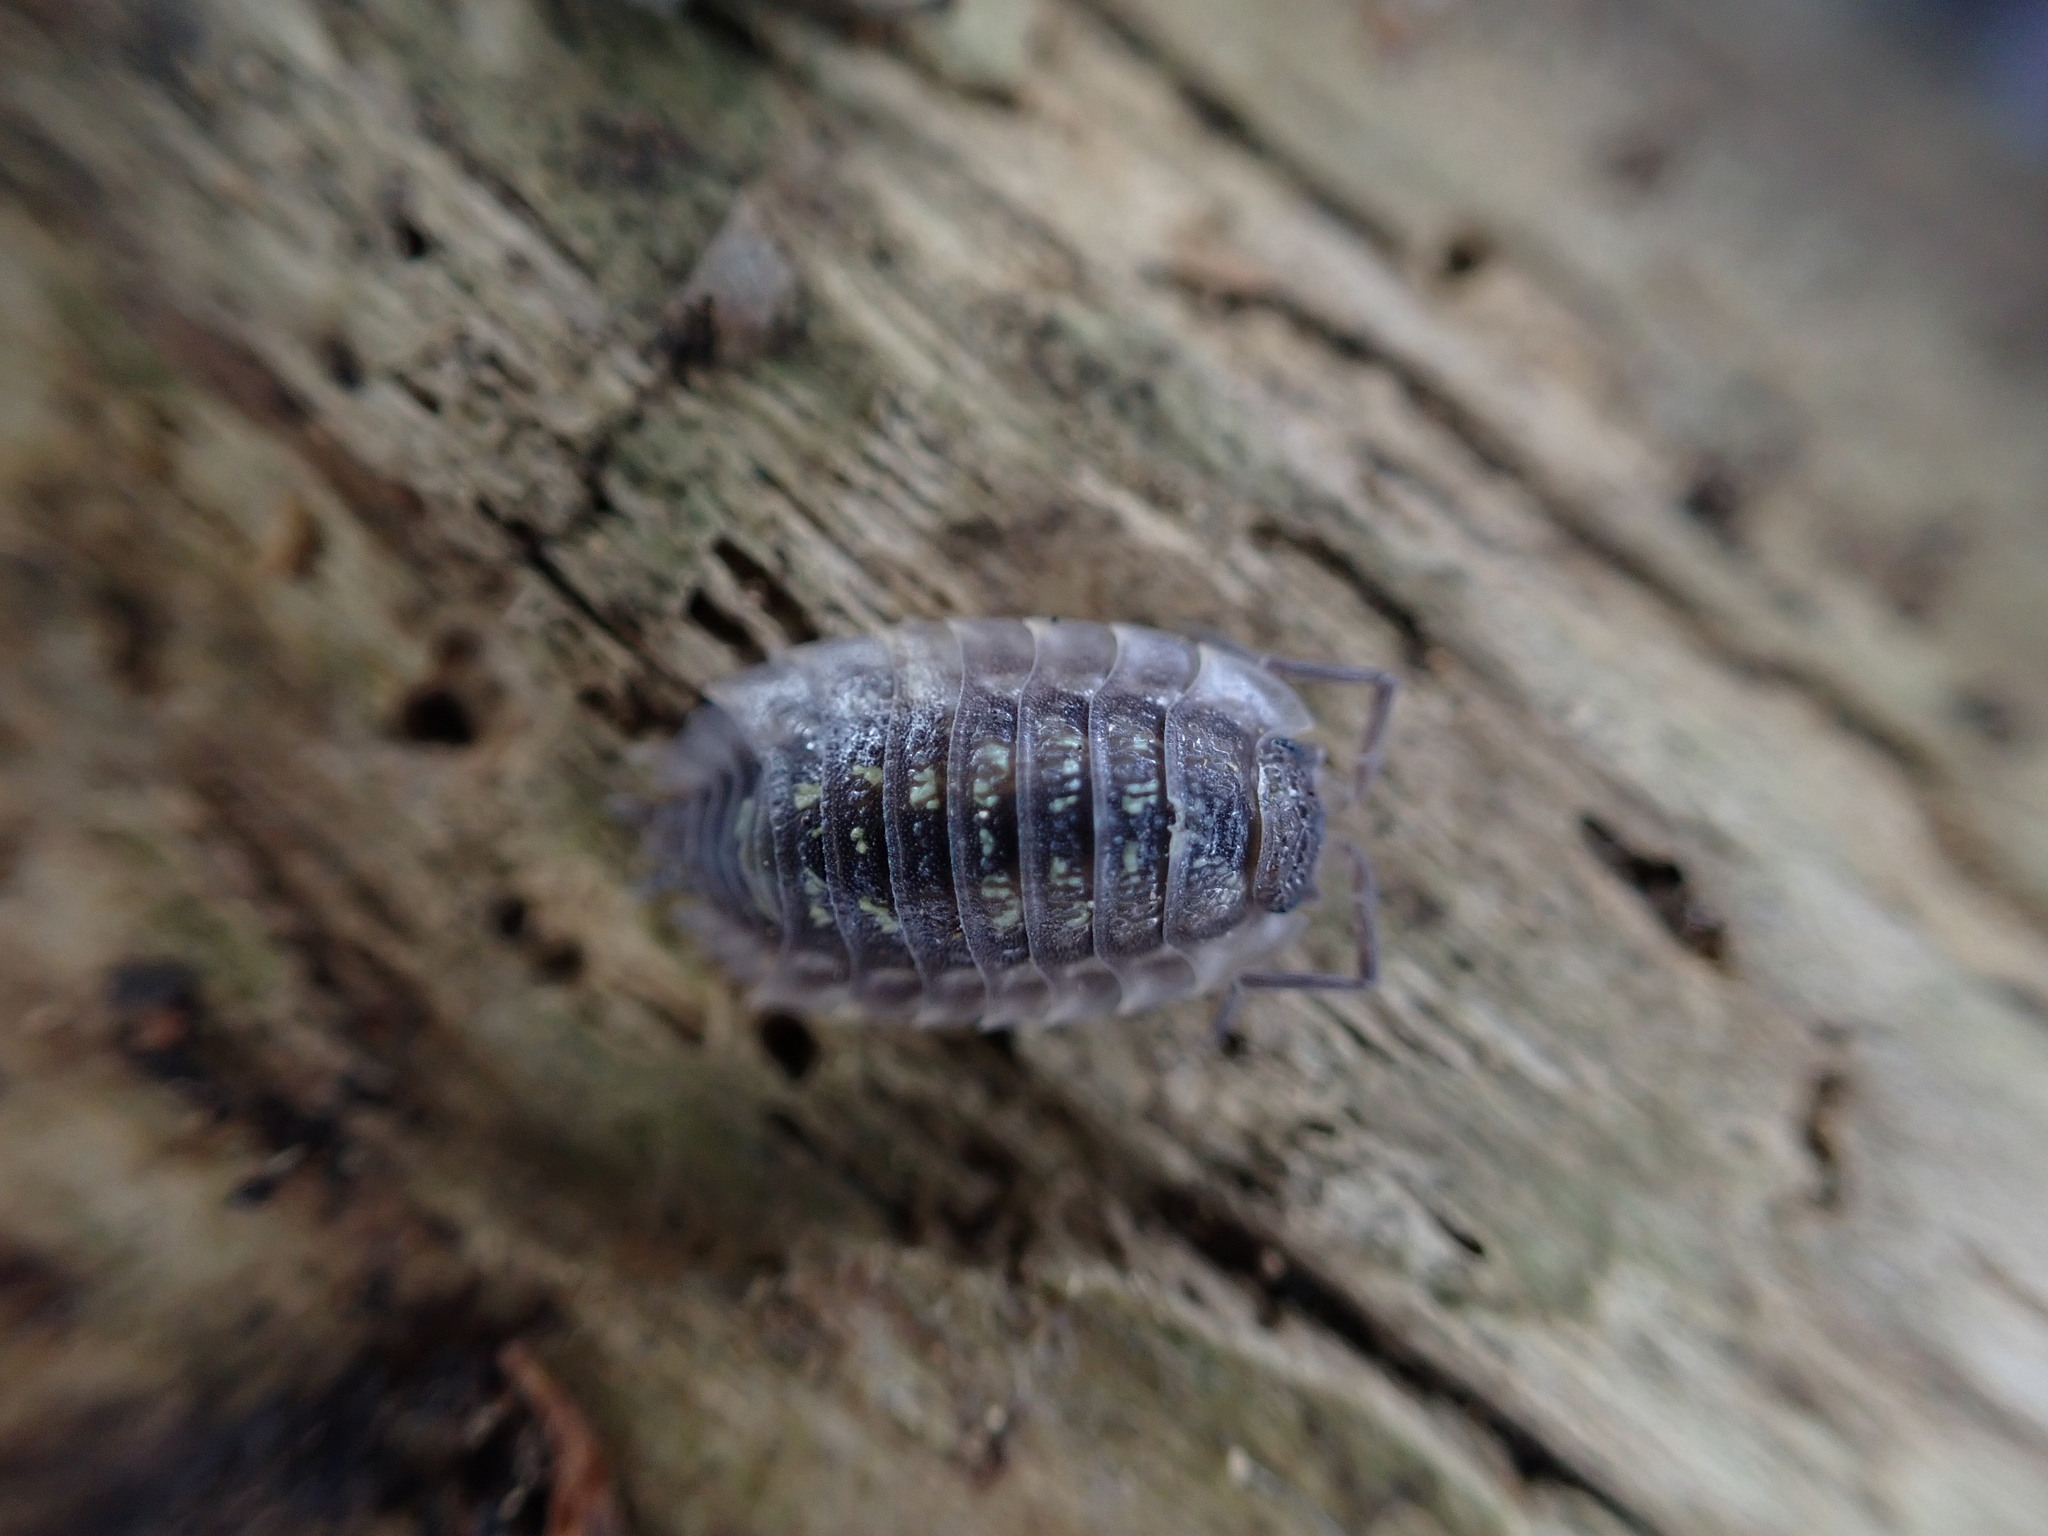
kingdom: Animalia
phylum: Arthropoda
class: Malacostraca
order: Isopoda
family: Oniscidae
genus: Oniscus
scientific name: Oniscus asellus
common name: Common shiny woodlouse
